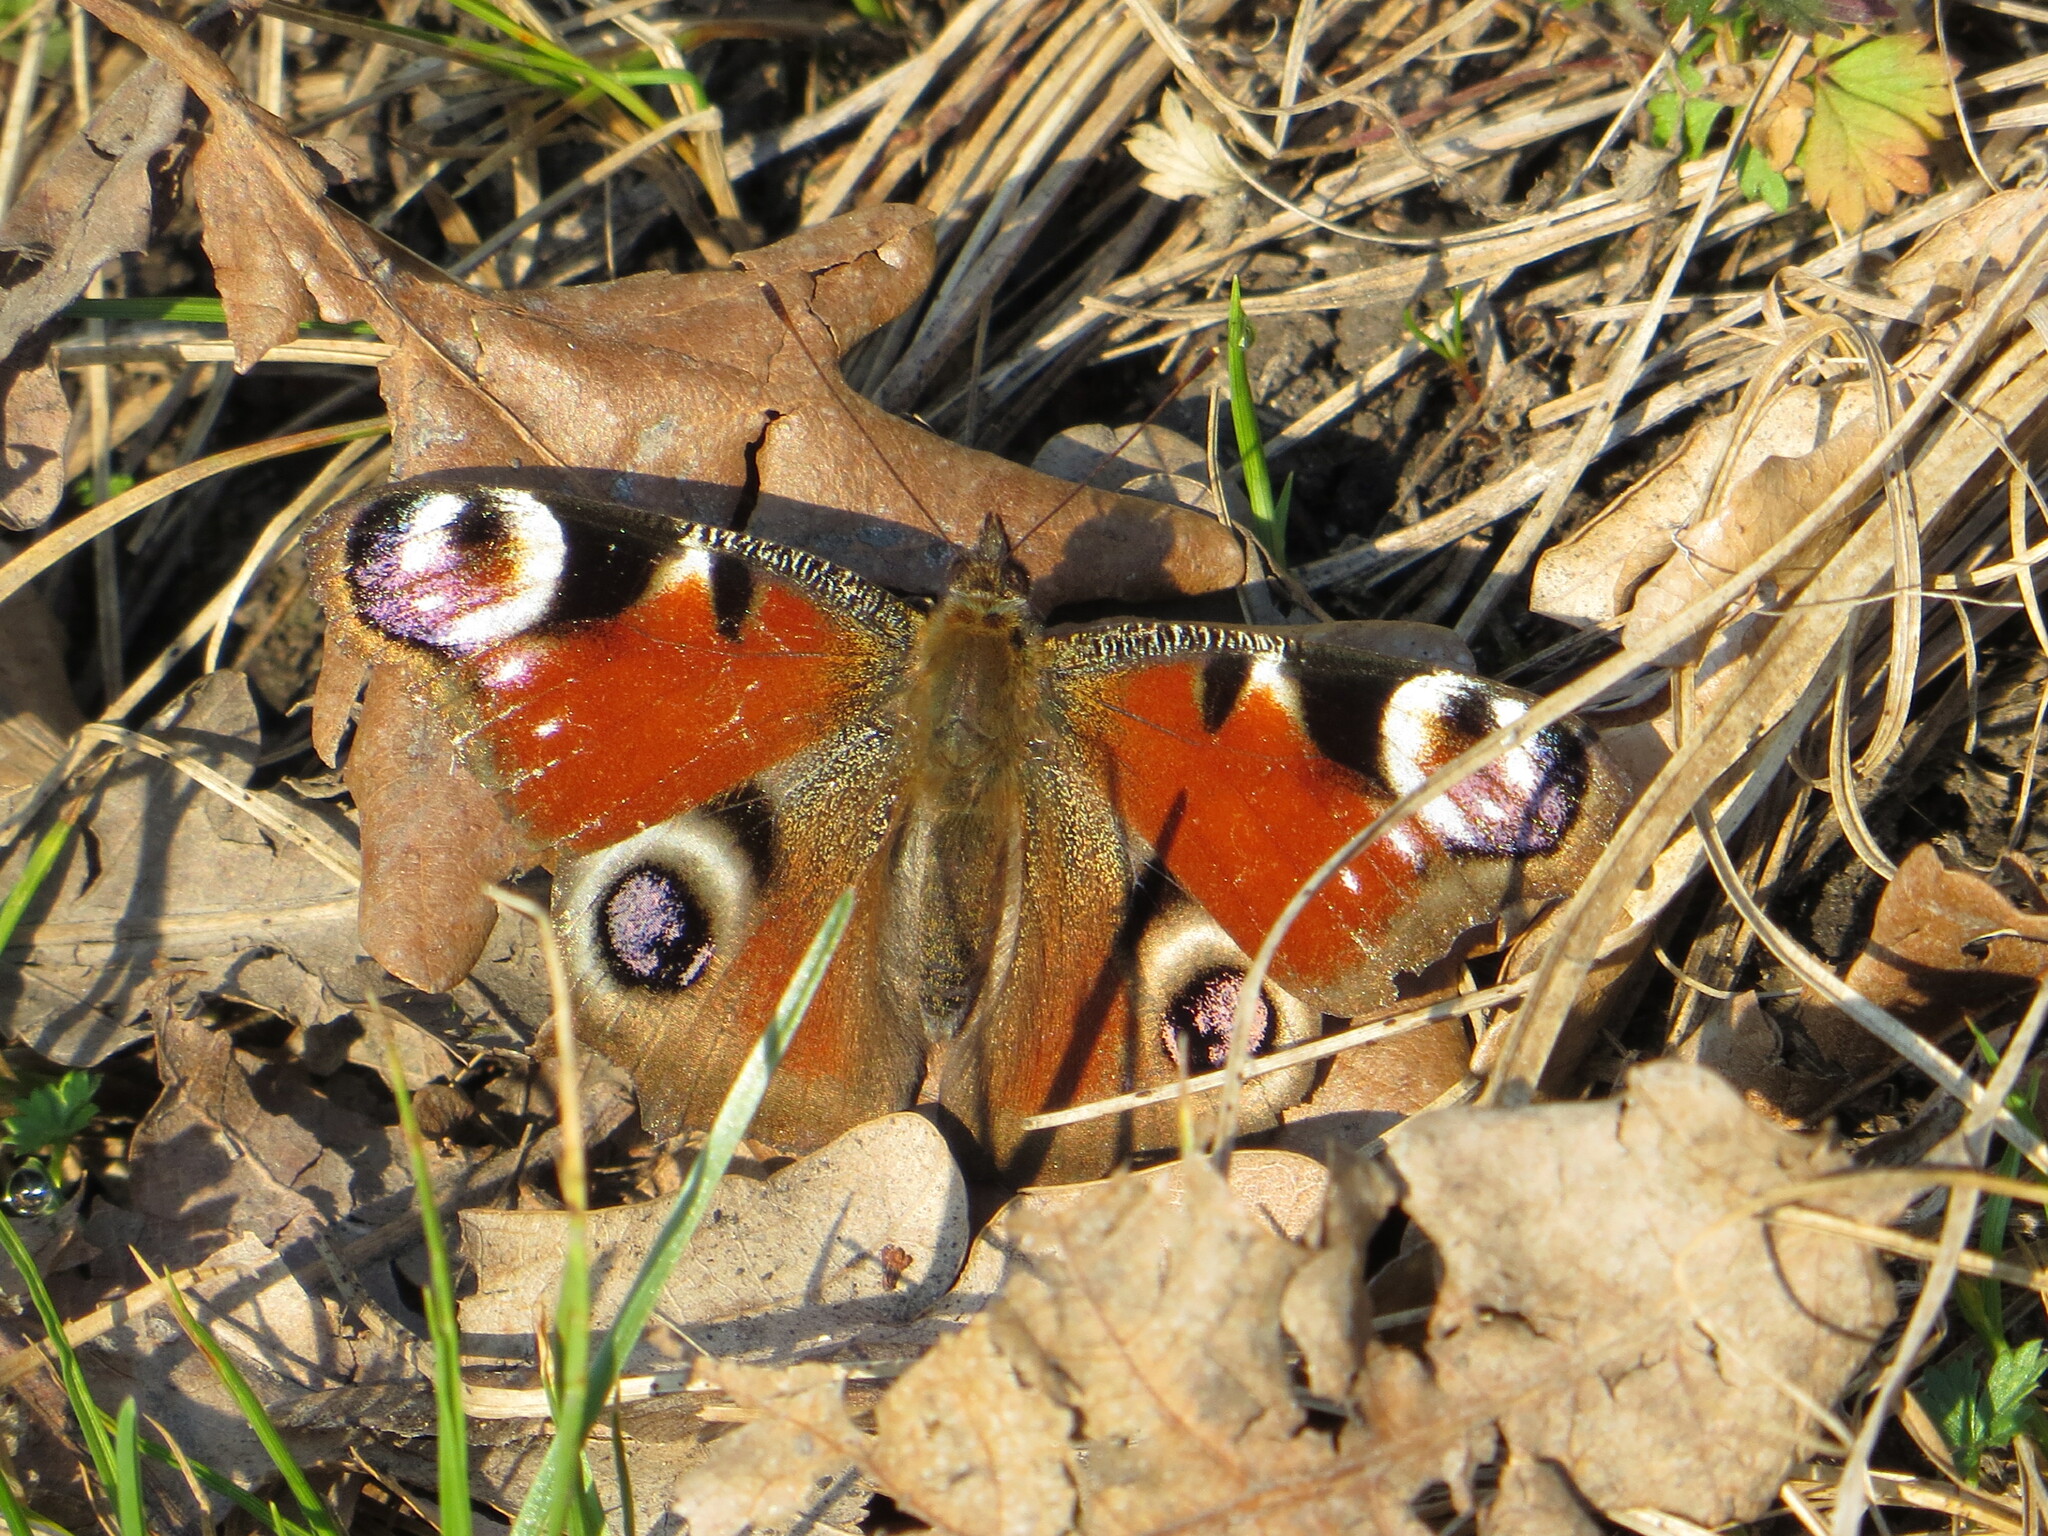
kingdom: Animalia
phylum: Arthropoda
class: Insecta
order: Lepidoptera
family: Nymphalidae
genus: Aglais
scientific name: Aglais io
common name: Peacock
